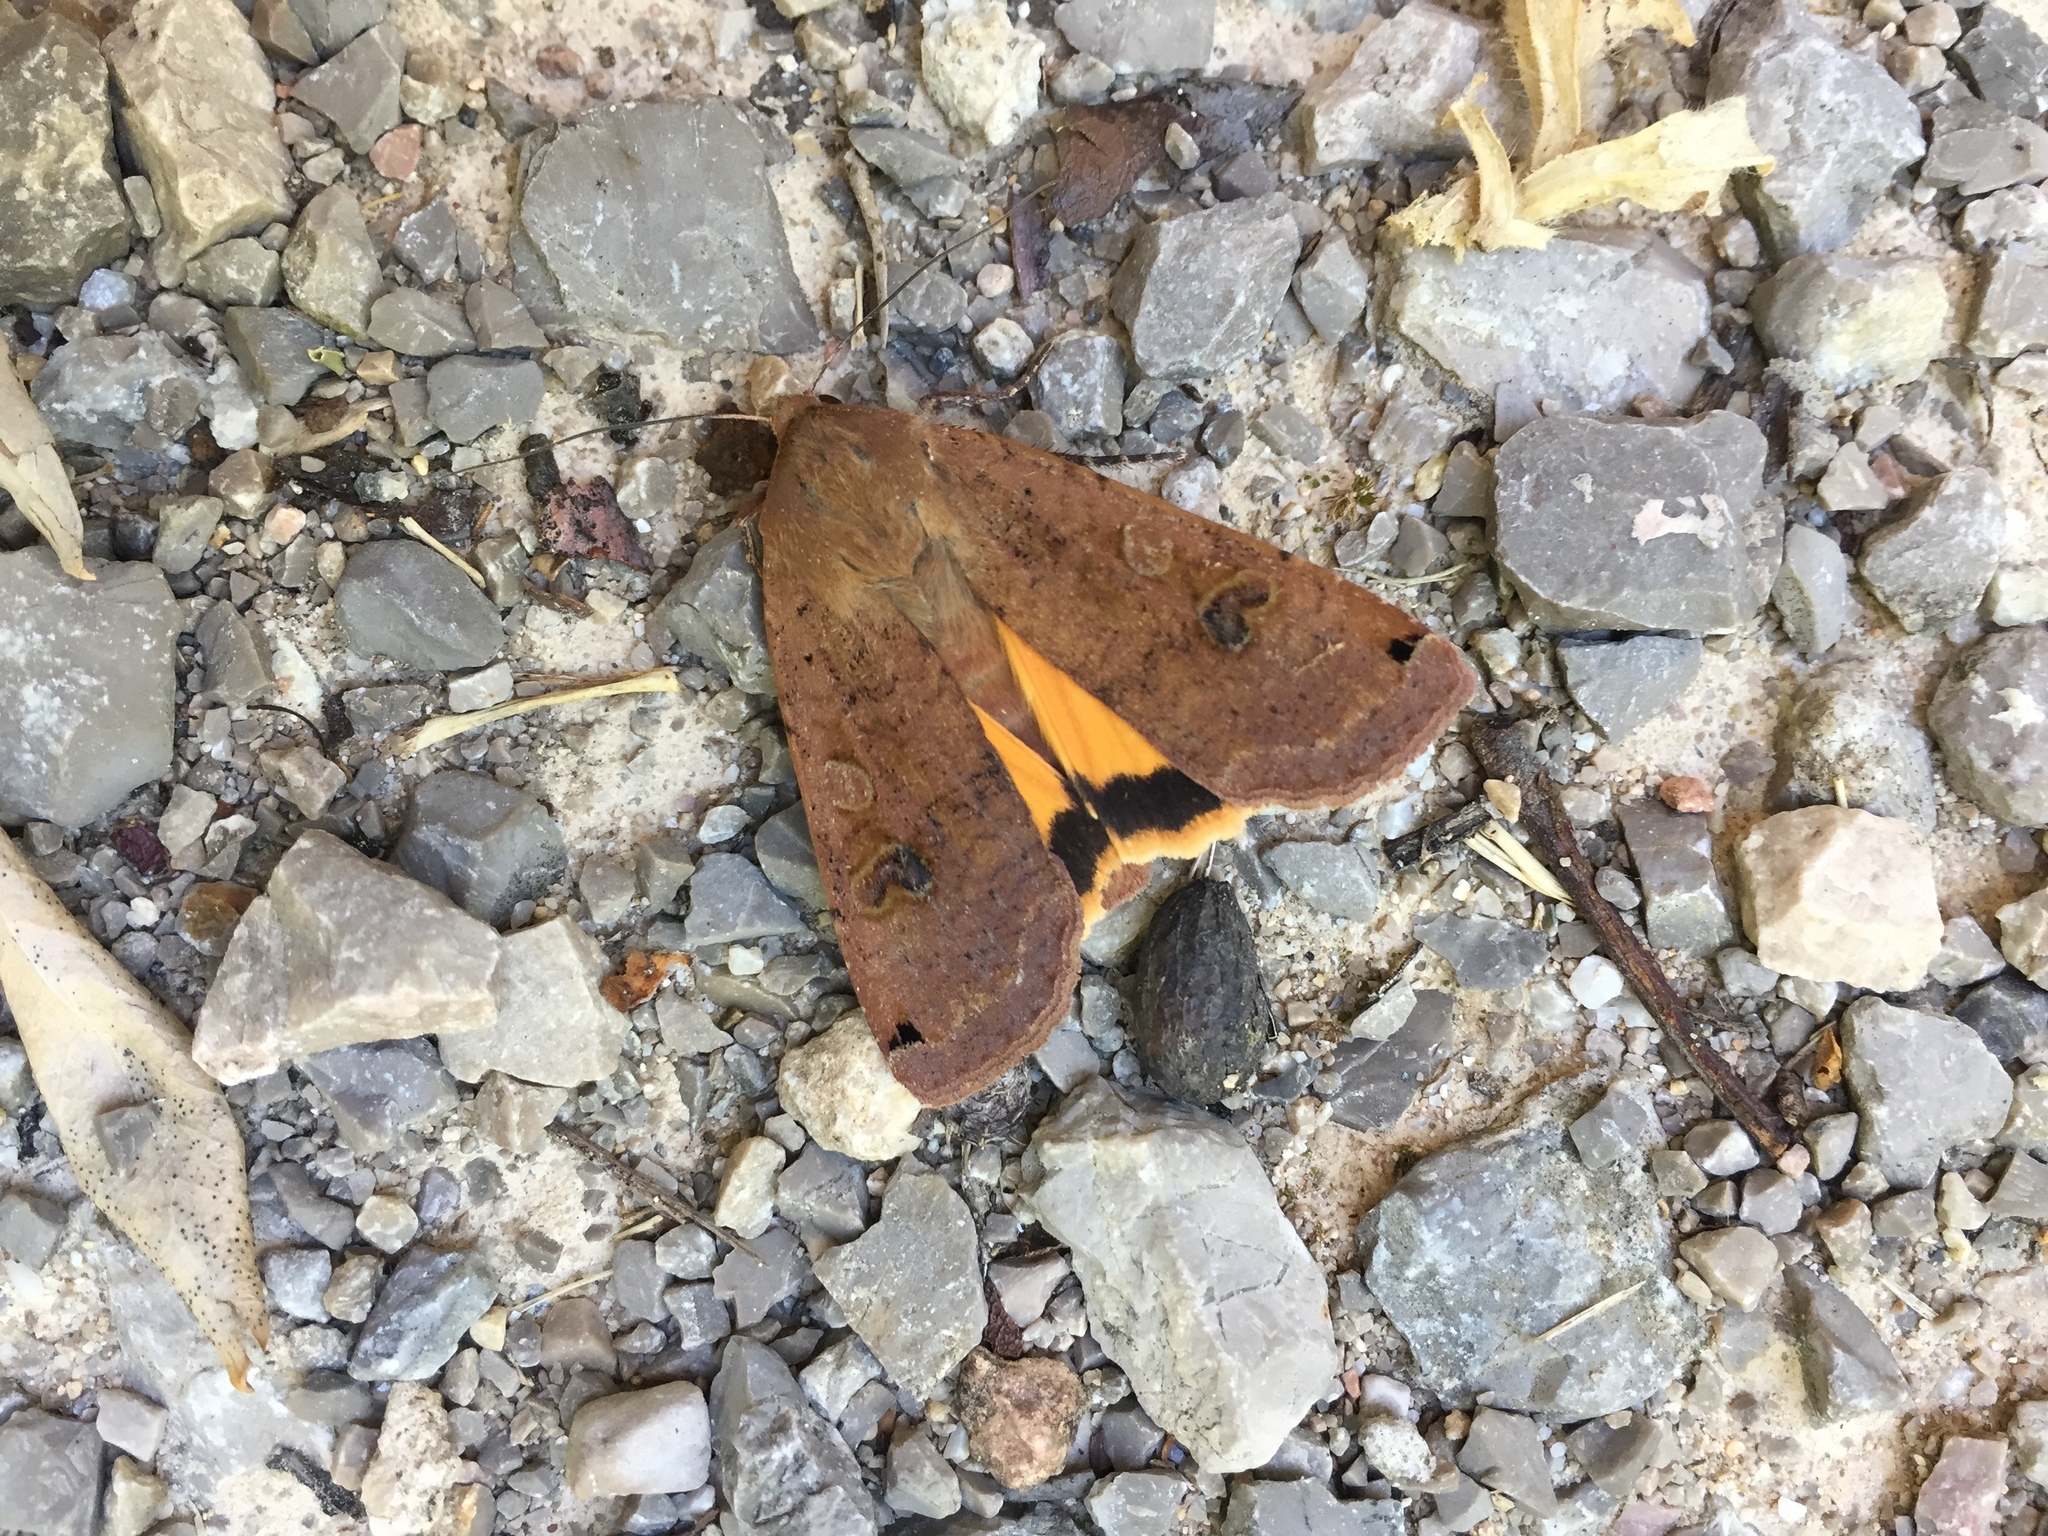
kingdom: Animalia
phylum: Arthropoda
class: Insecta
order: Lepidoptera
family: Noctuidae
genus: Noctua
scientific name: Noctua pronuba
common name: Large yellow underwing
